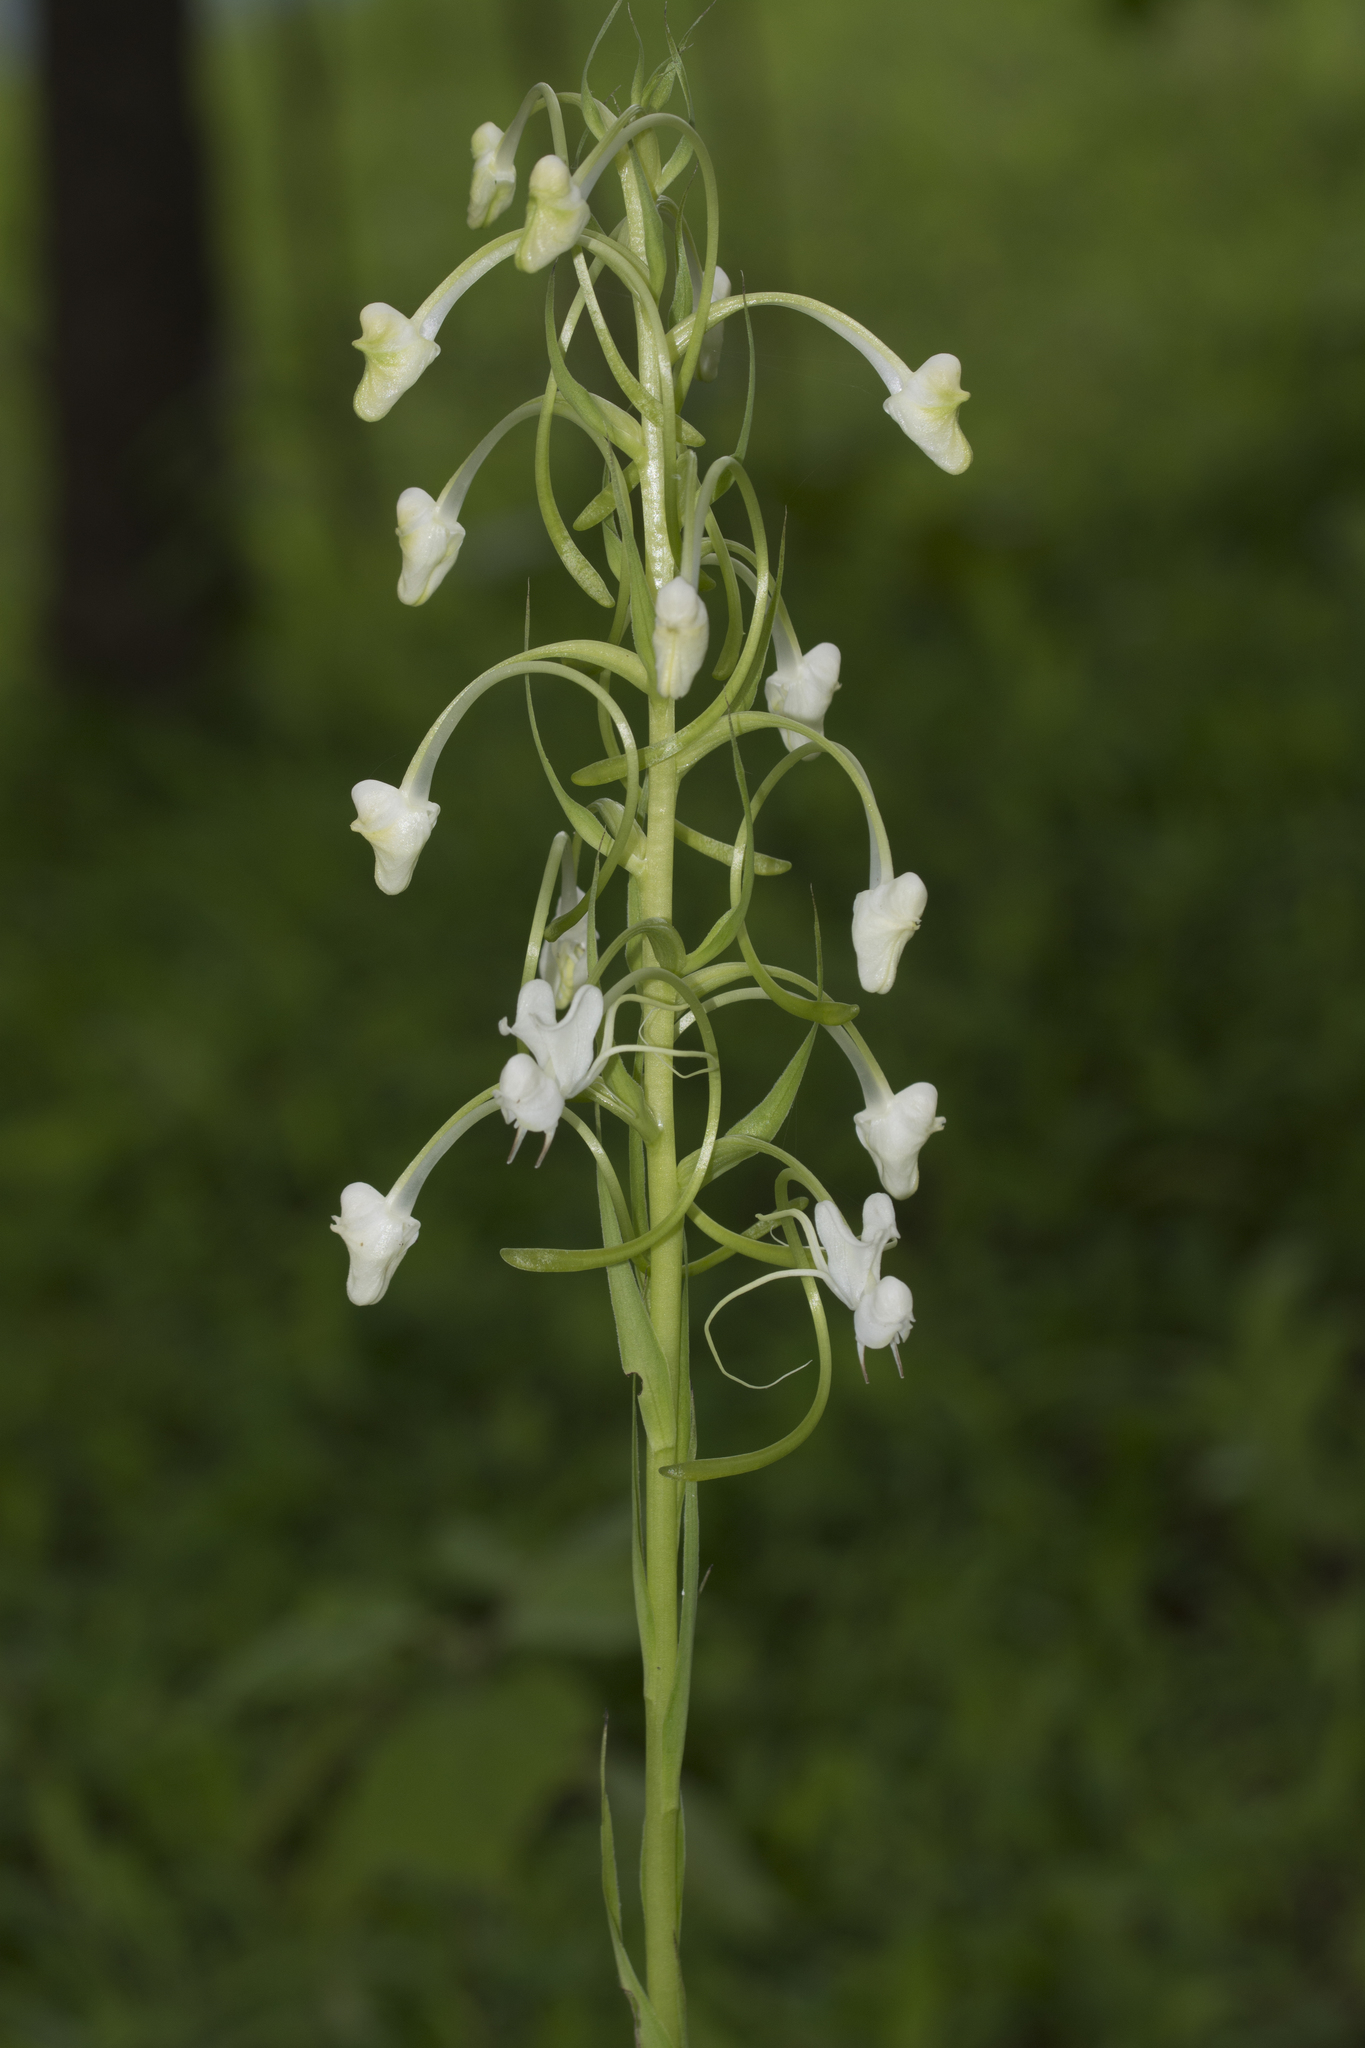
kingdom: Plantae
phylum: Tracheophyta
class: Liliopsida
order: Asparagales
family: Orchidaceae
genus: Habenaria
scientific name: Habenaria commelinifolia
